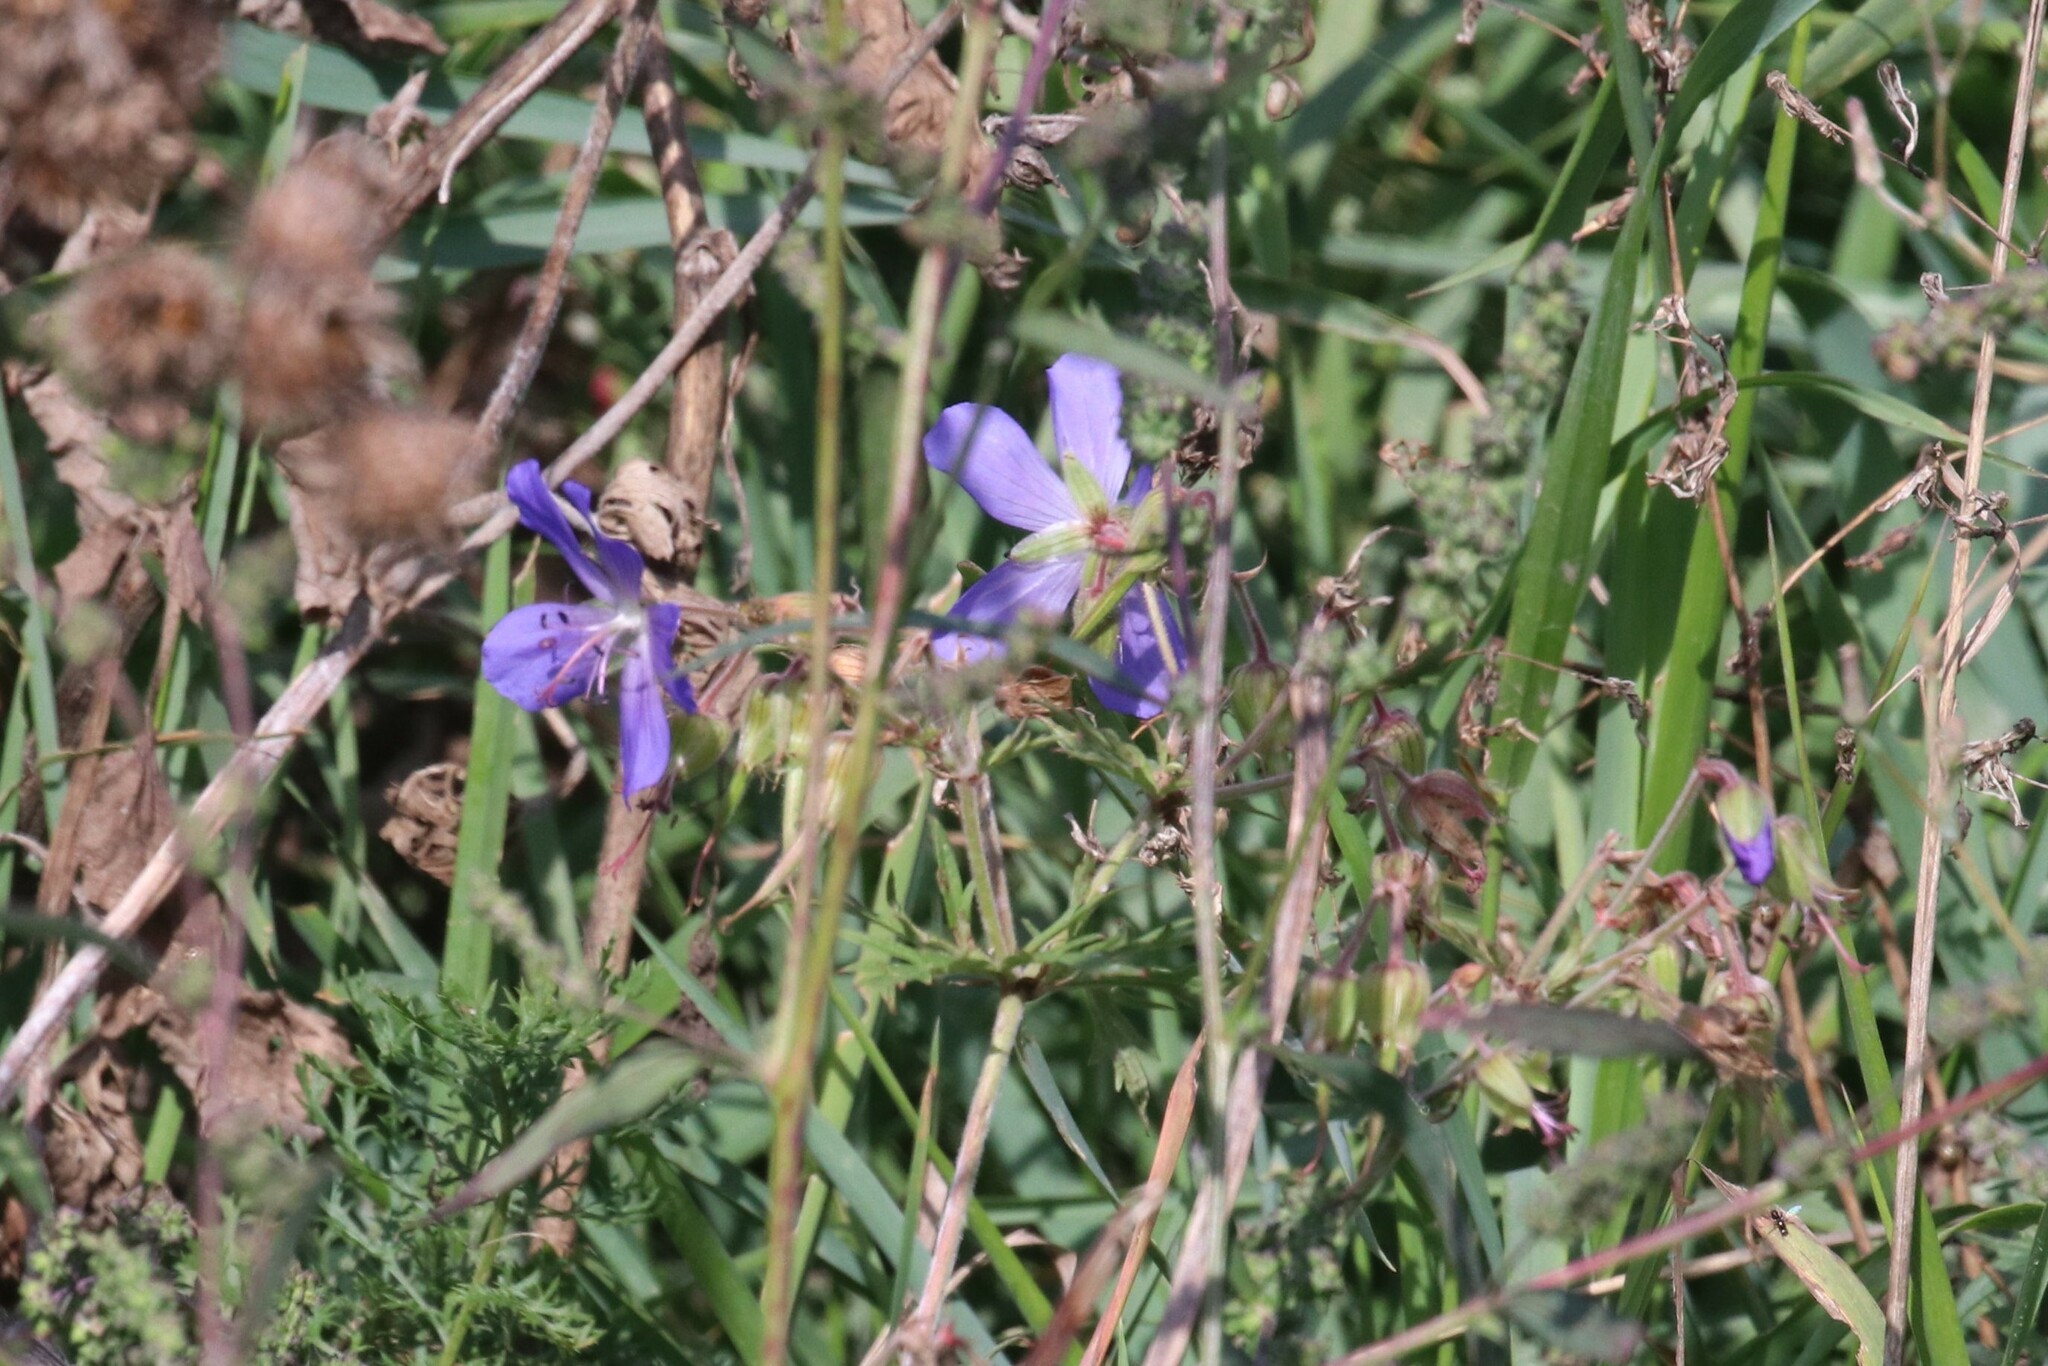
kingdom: Plantae
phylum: Tracheophyta
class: Magnoliopsida
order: Geraniales
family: Geraniaceae
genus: Geranium
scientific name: Geranium pratense
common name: Meadow crane's-bill
